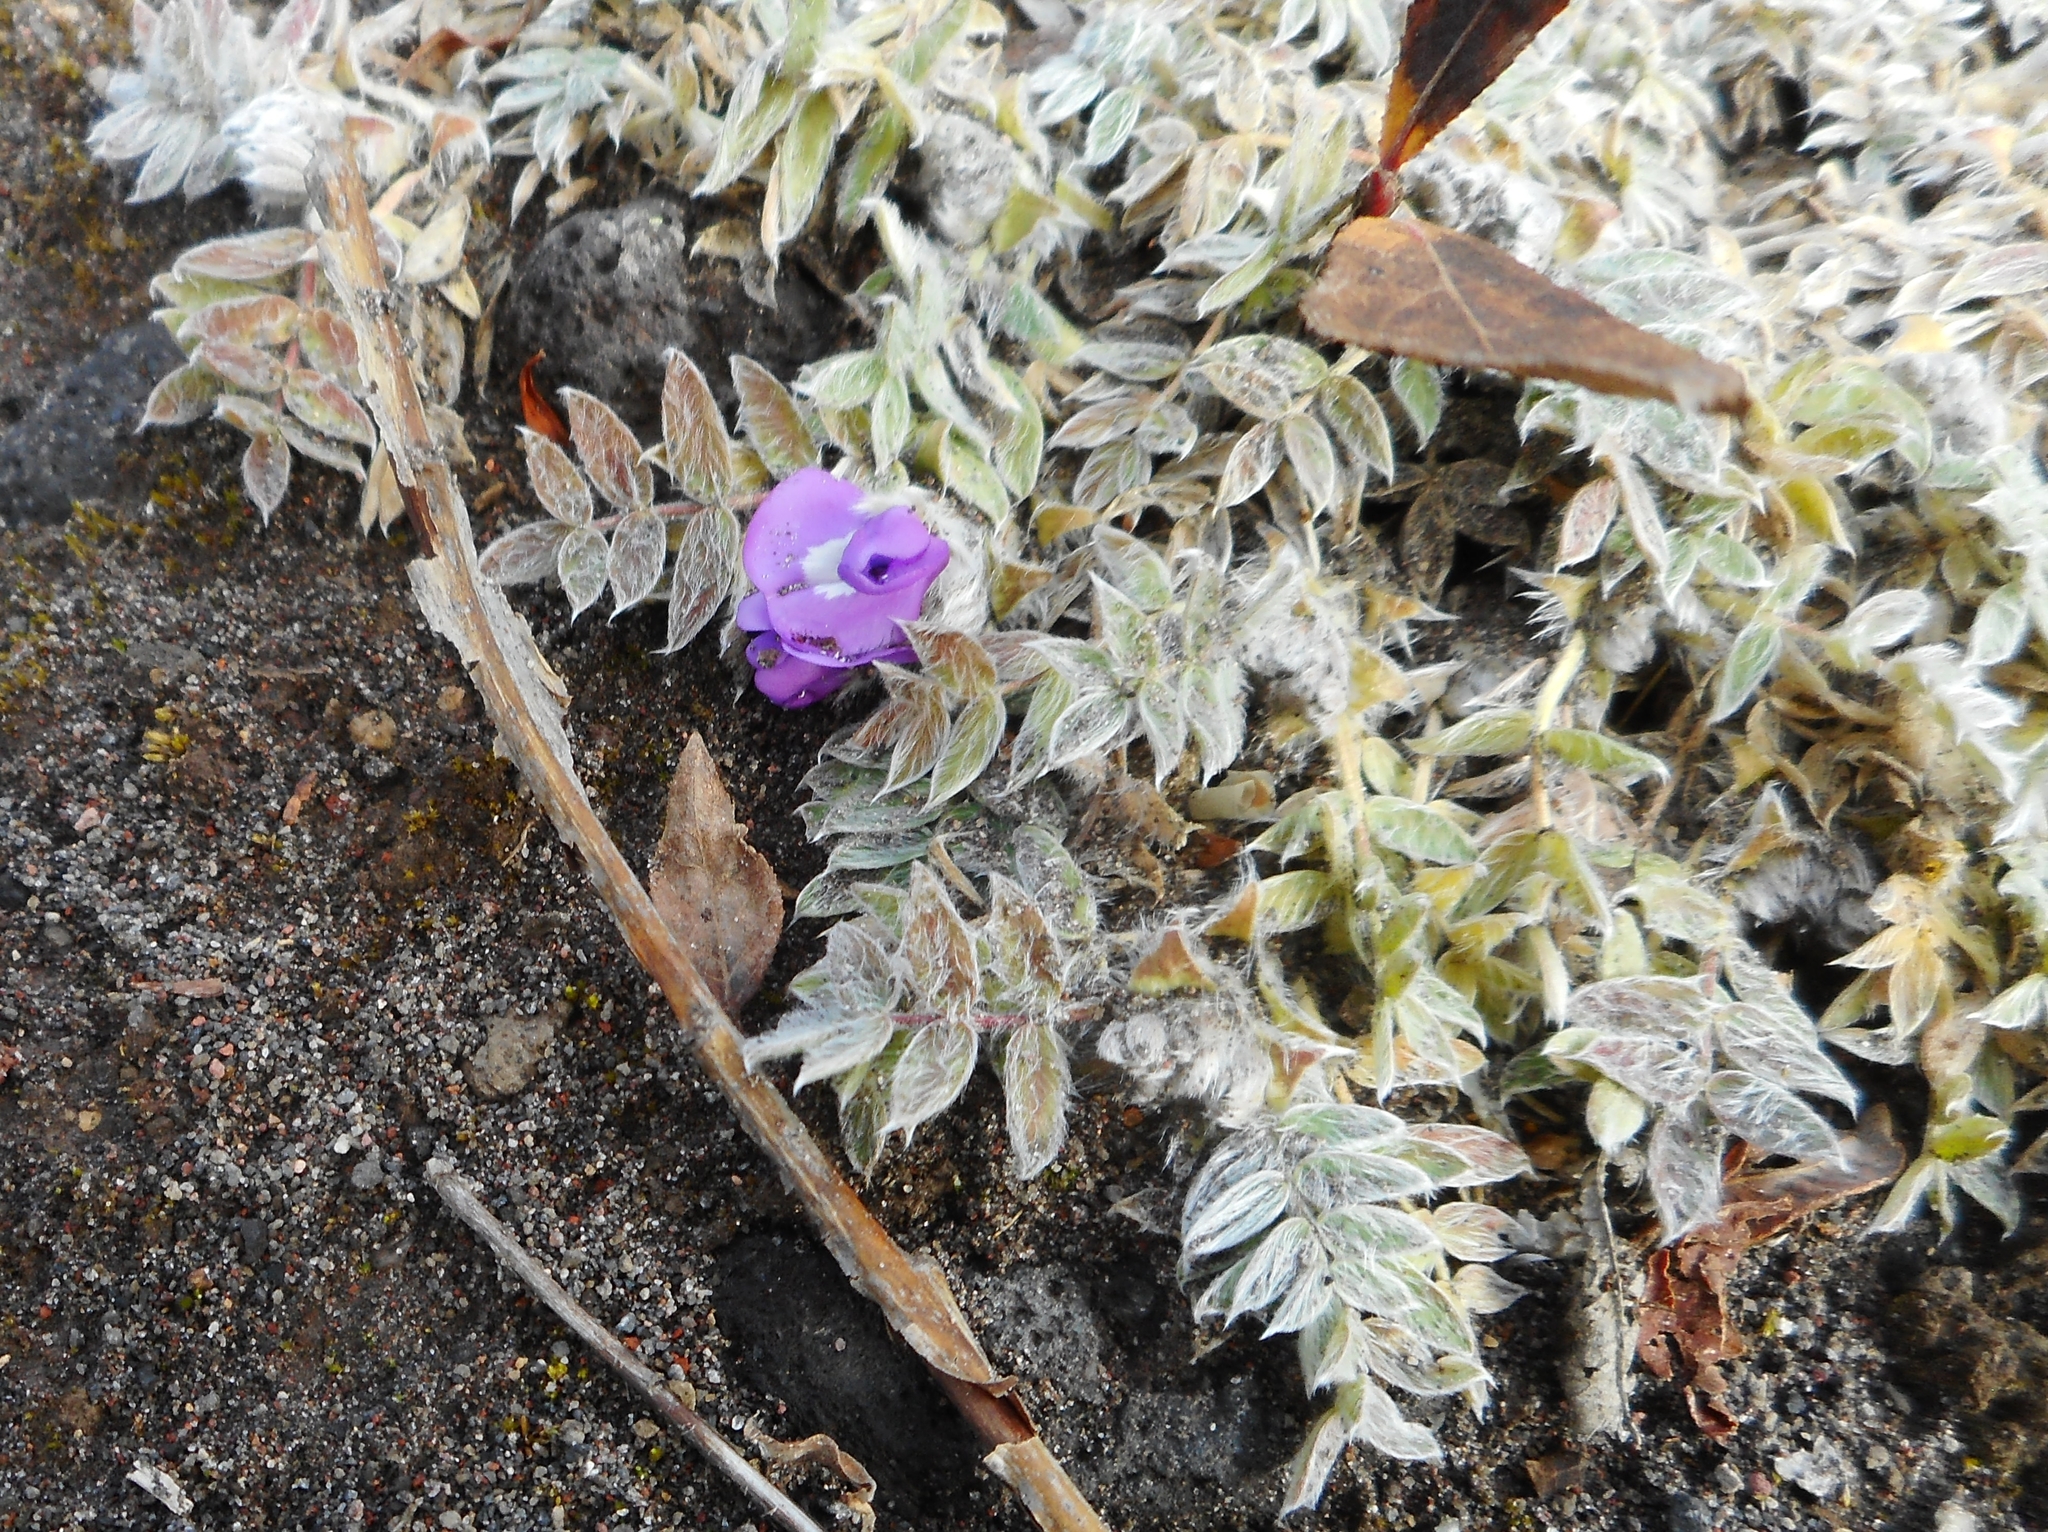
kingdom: Plantae
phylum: Tracheophyta
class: Magnoliopsida
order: Fabales
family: Fabaceae
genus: Oxytropis
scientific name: Oxytropis pumilio
